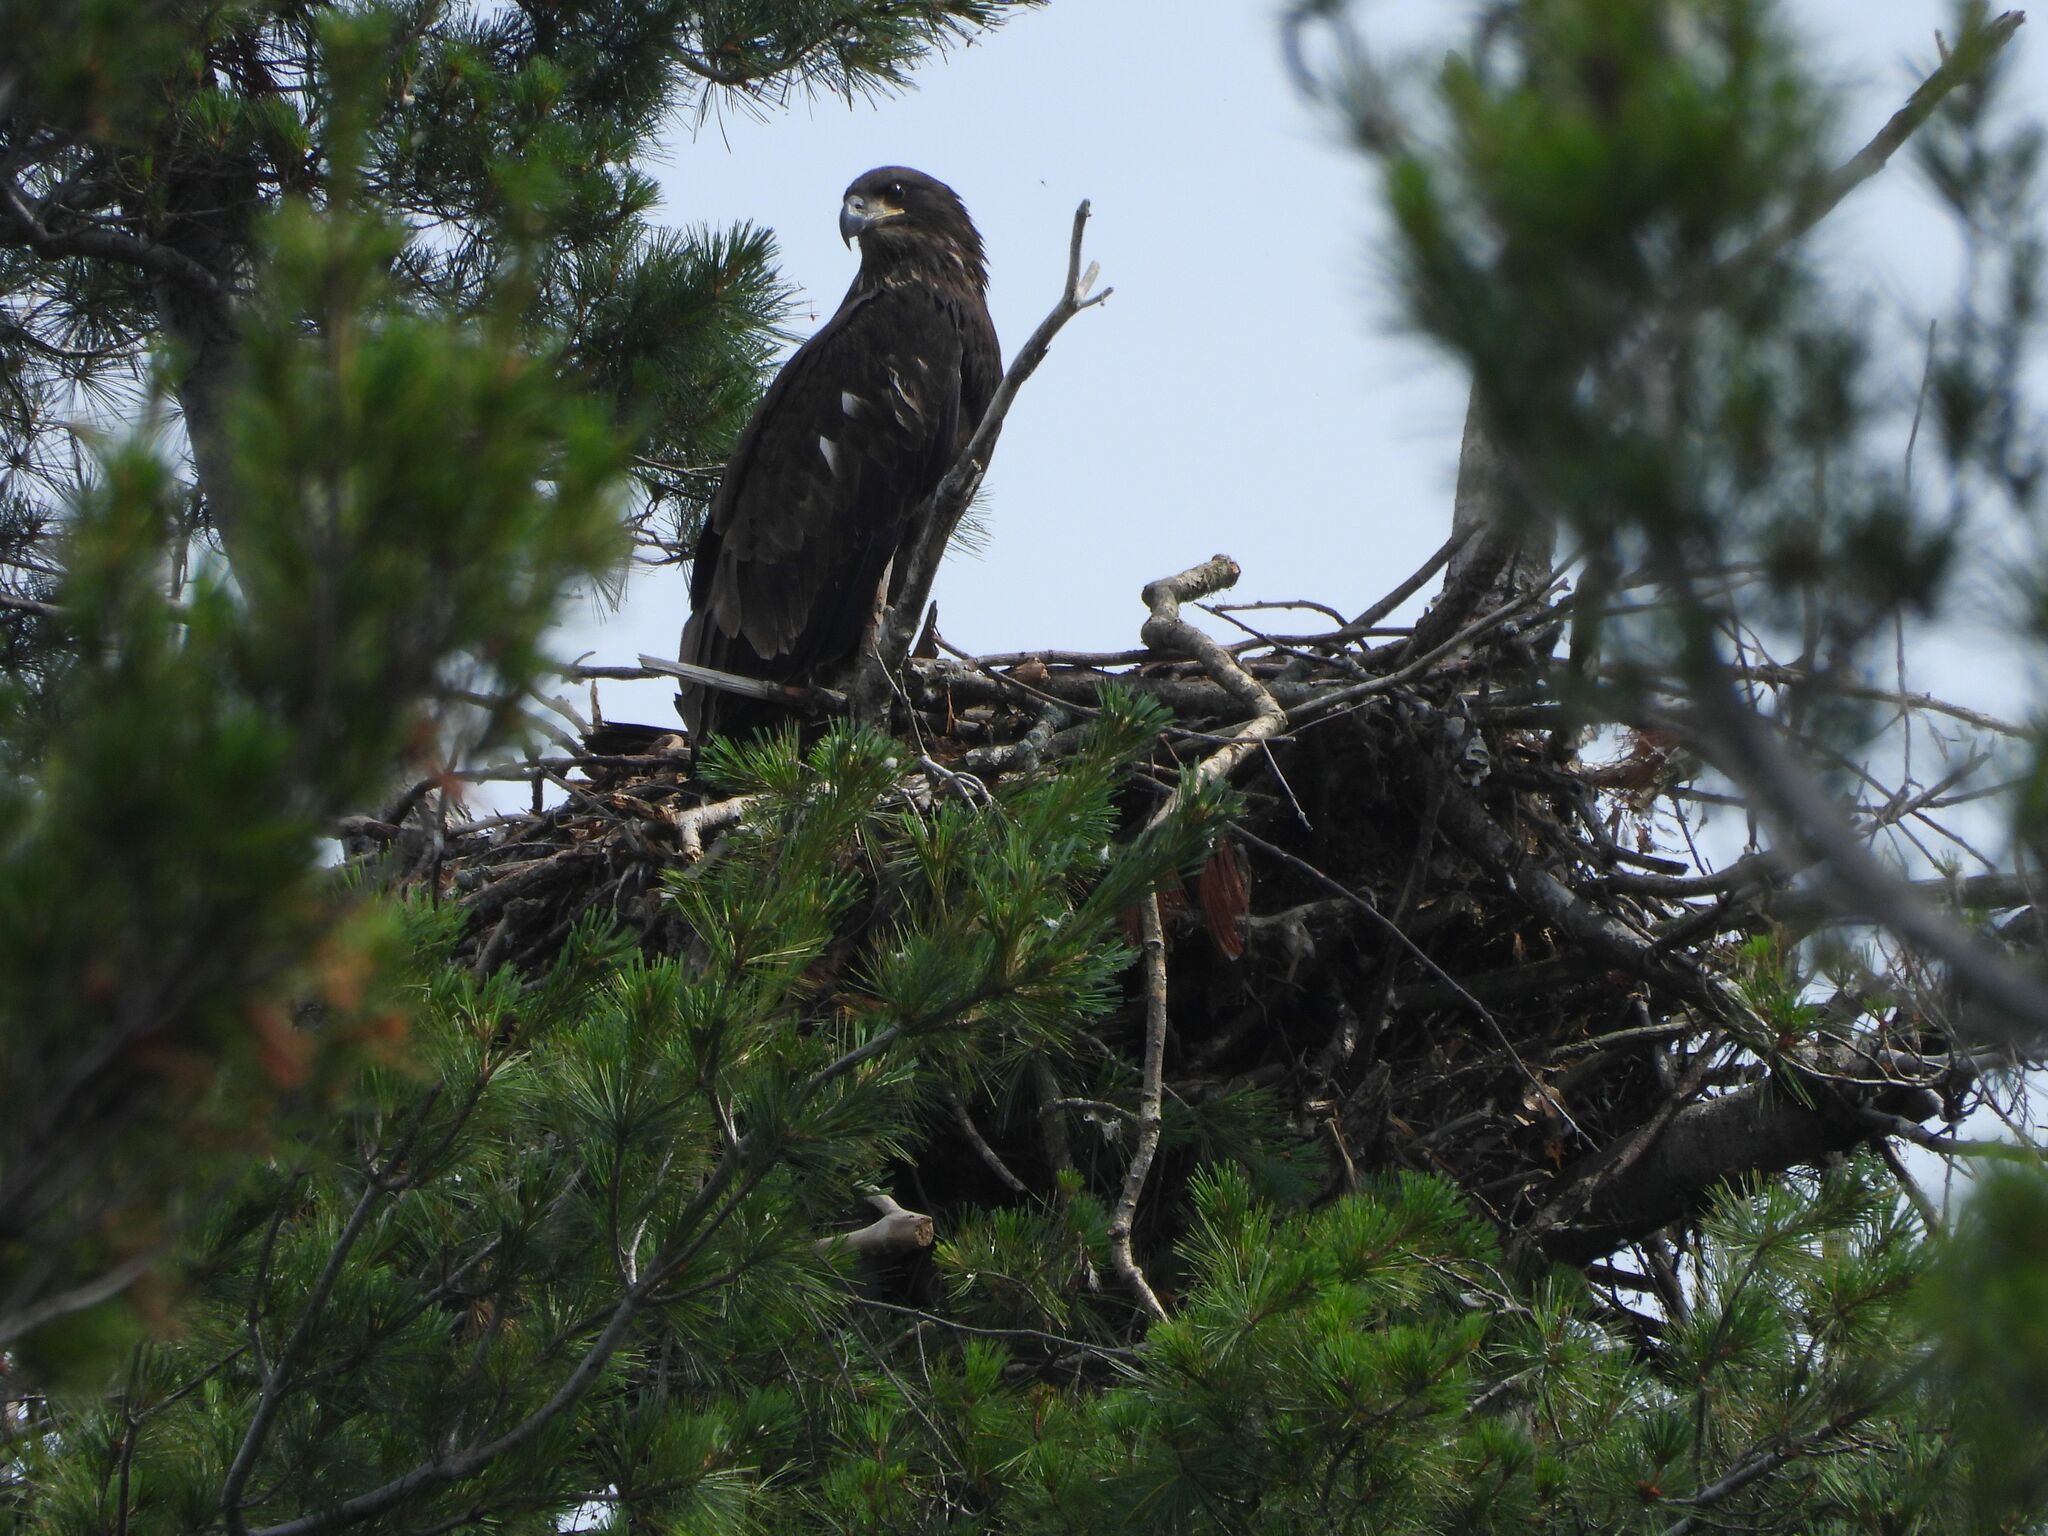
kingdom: Animalia
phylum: Chordata
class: Aves
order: Accipitriformes
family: Accipitridae
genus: Haliaeetus
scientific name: Haliaeetus leucocephalus
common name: Bald eagle
